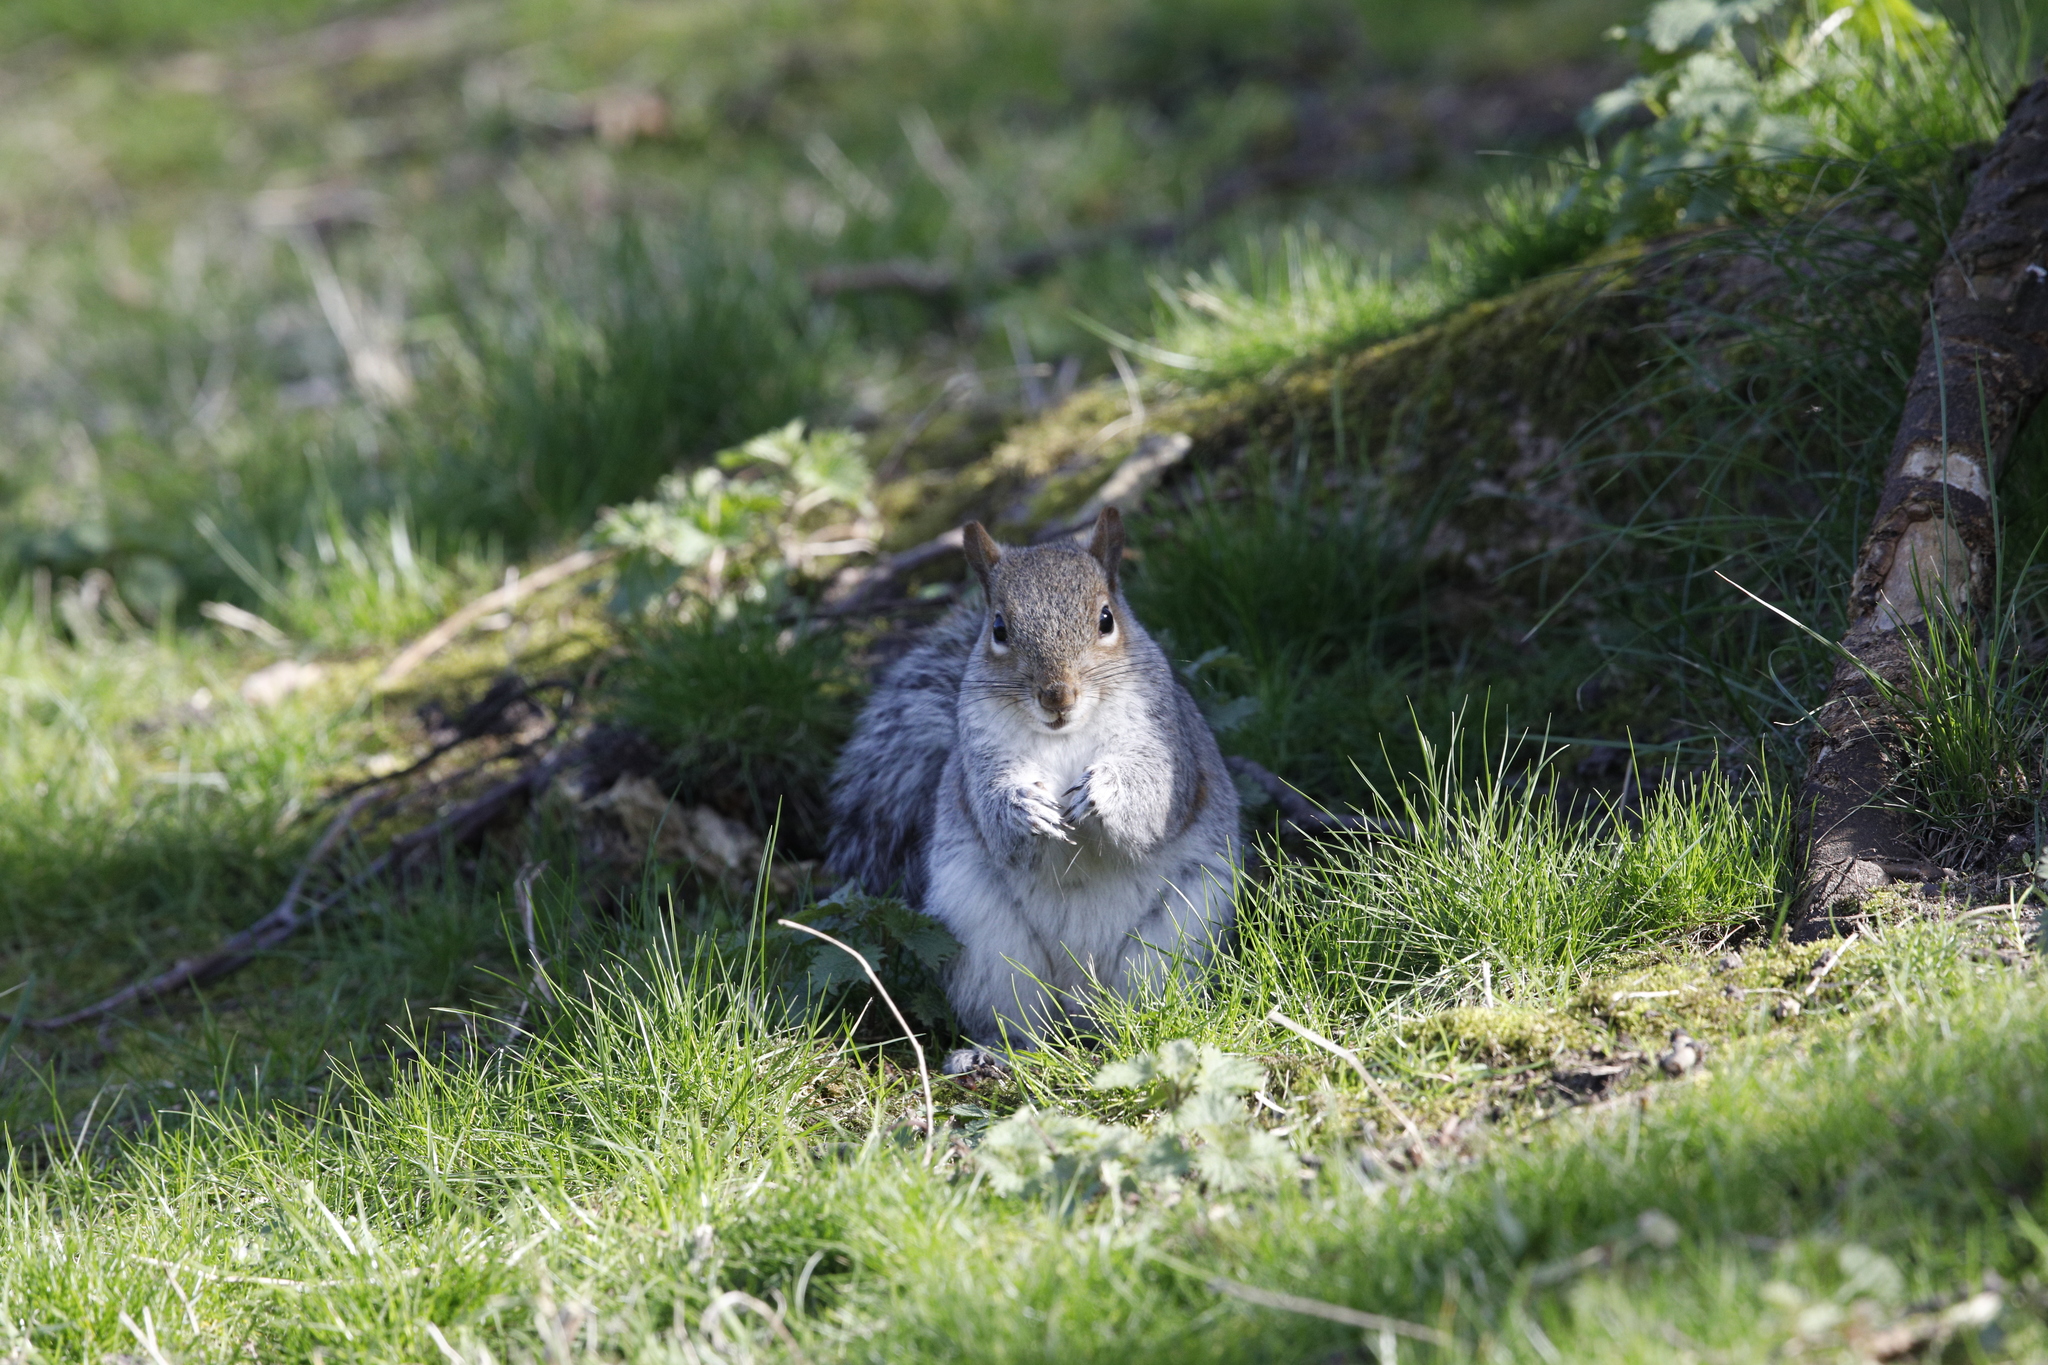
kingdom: Animalia
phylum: Chordata
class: Mammalia
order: Rodentia
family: Sciuridae
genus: Sciurus
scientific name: Sciurus carolinensis
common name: Eastern gray squirrel
